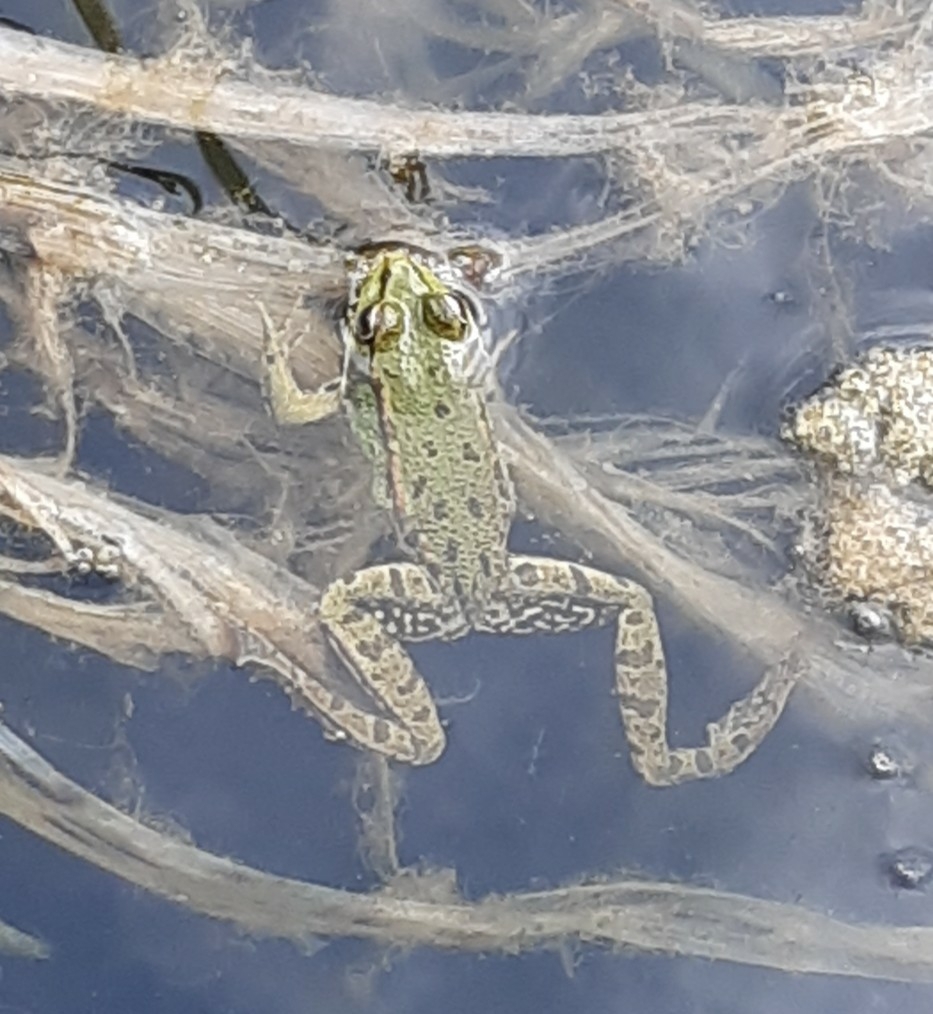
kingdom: Animalia
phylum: Chordata
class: Amphibia
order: Anura
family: Ranidae
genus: Pelophylax
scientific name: Pelophylax
